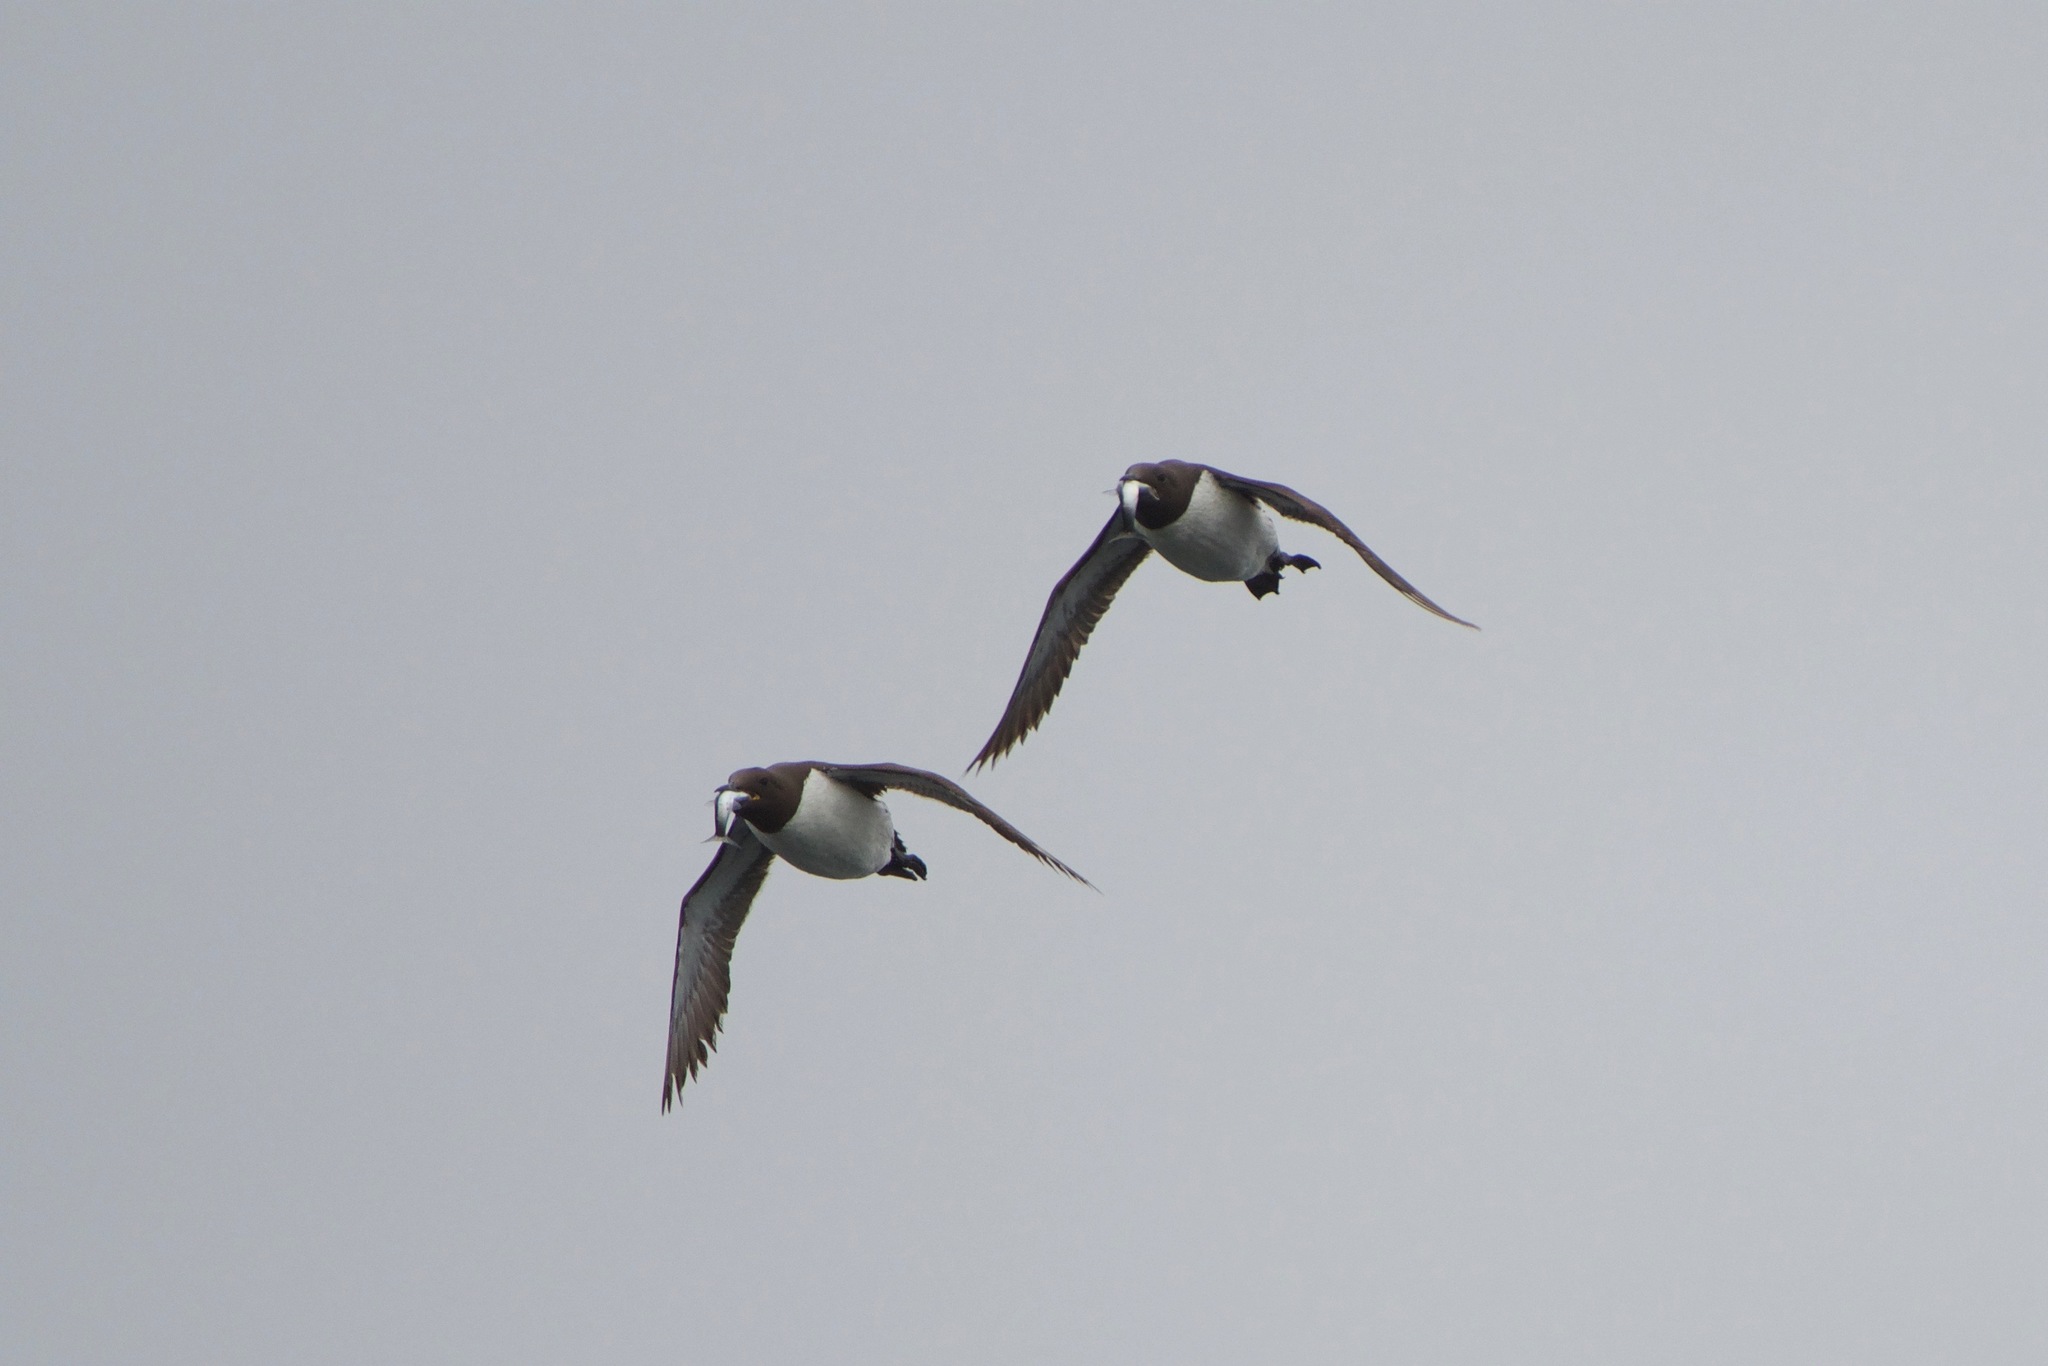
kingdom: Animalia
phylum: Chordata
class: Aves
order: Charadriiformes
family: Alcidae
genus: Uria
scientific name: Uria aalge
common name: Common murre
